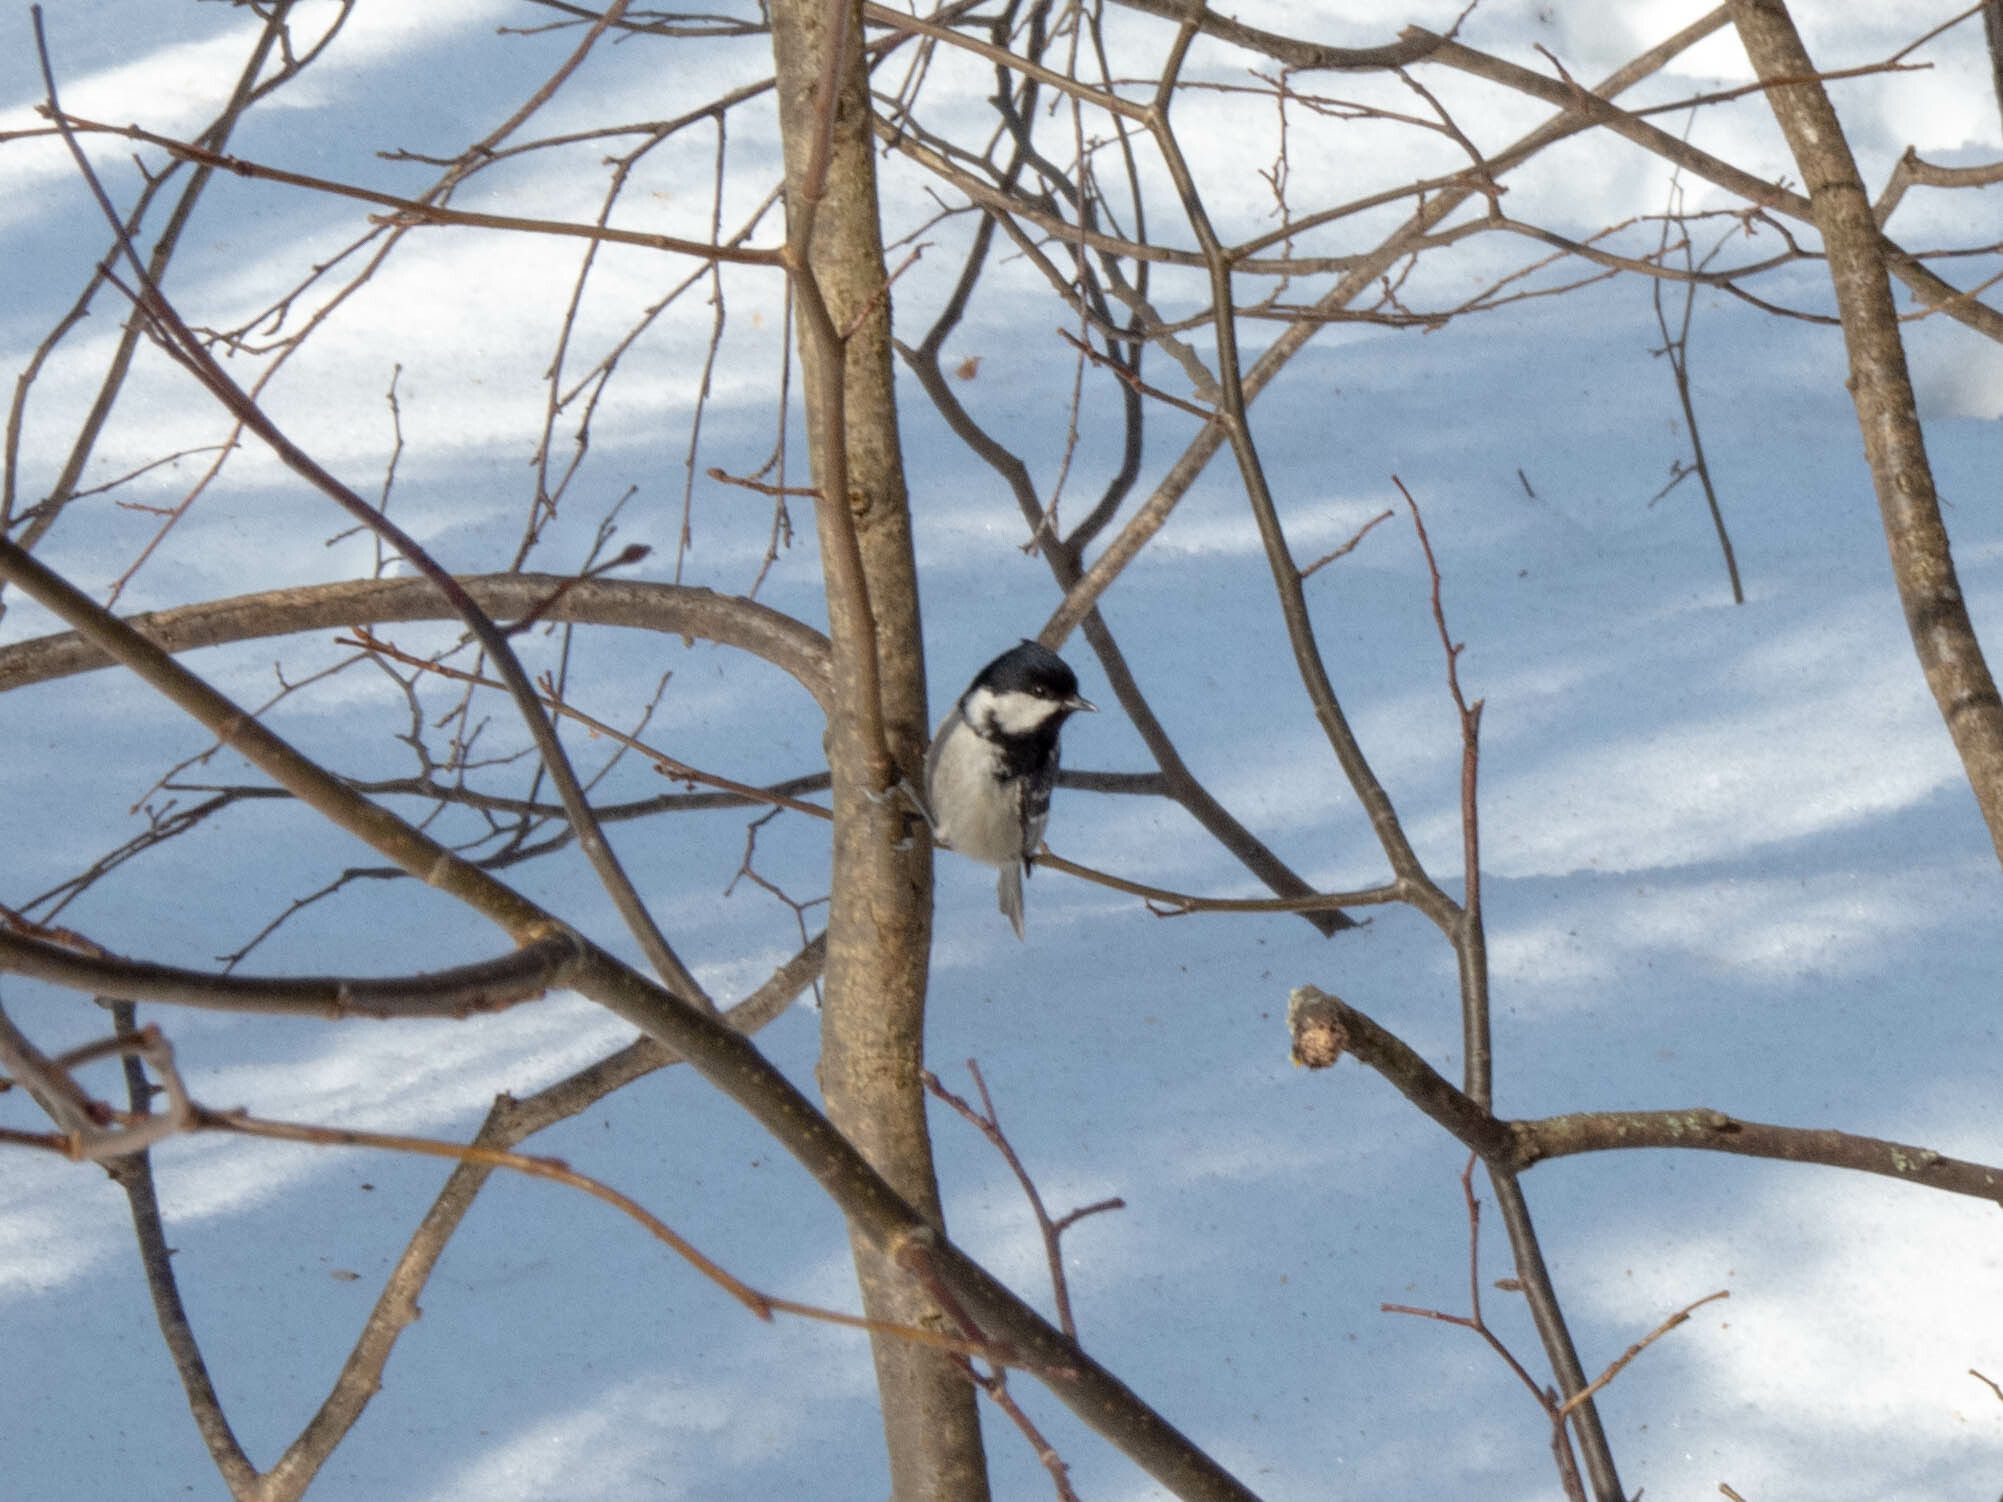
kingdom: Animalia
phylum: Chordata
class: Aves
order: Passeriformes
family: Paridae
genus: Periparus
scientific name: Periparus ater
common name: Coal tit
